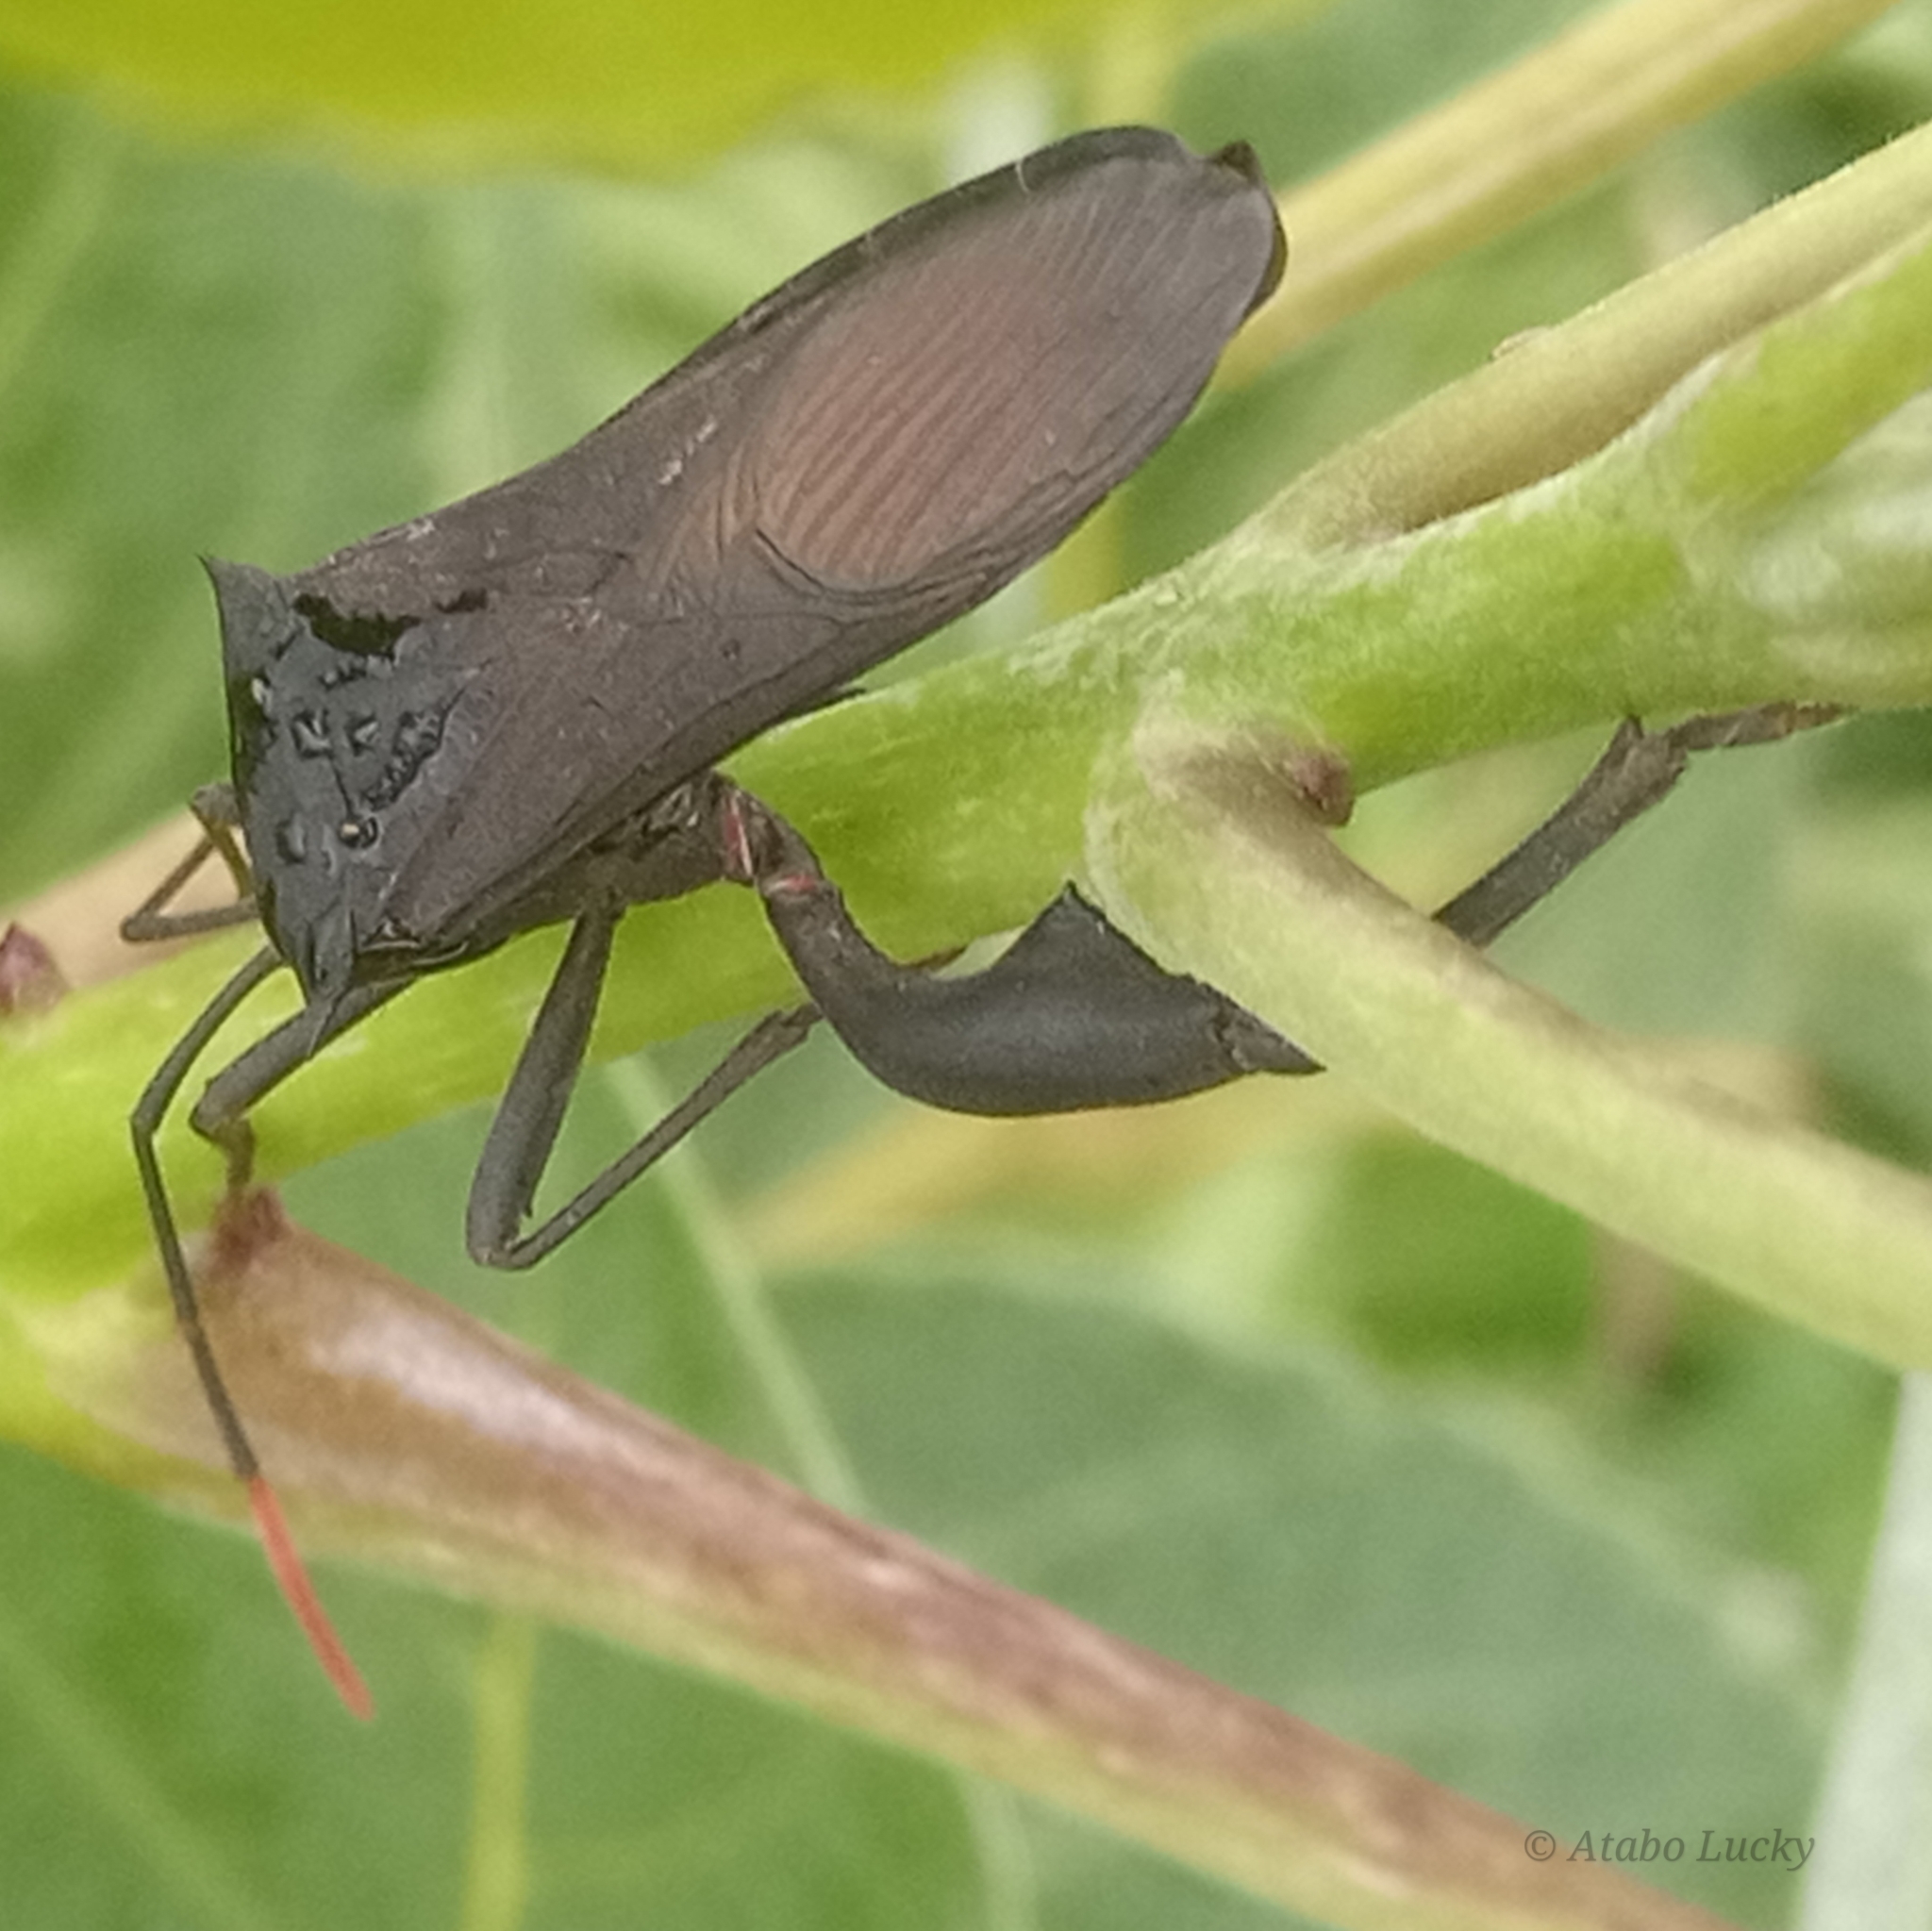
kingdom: Animalia
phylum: Arthropoda
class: Insecta
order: Hemiptera
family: Coreidae
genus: Anoplocnemis
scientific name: Anoplocnemis curvipes
